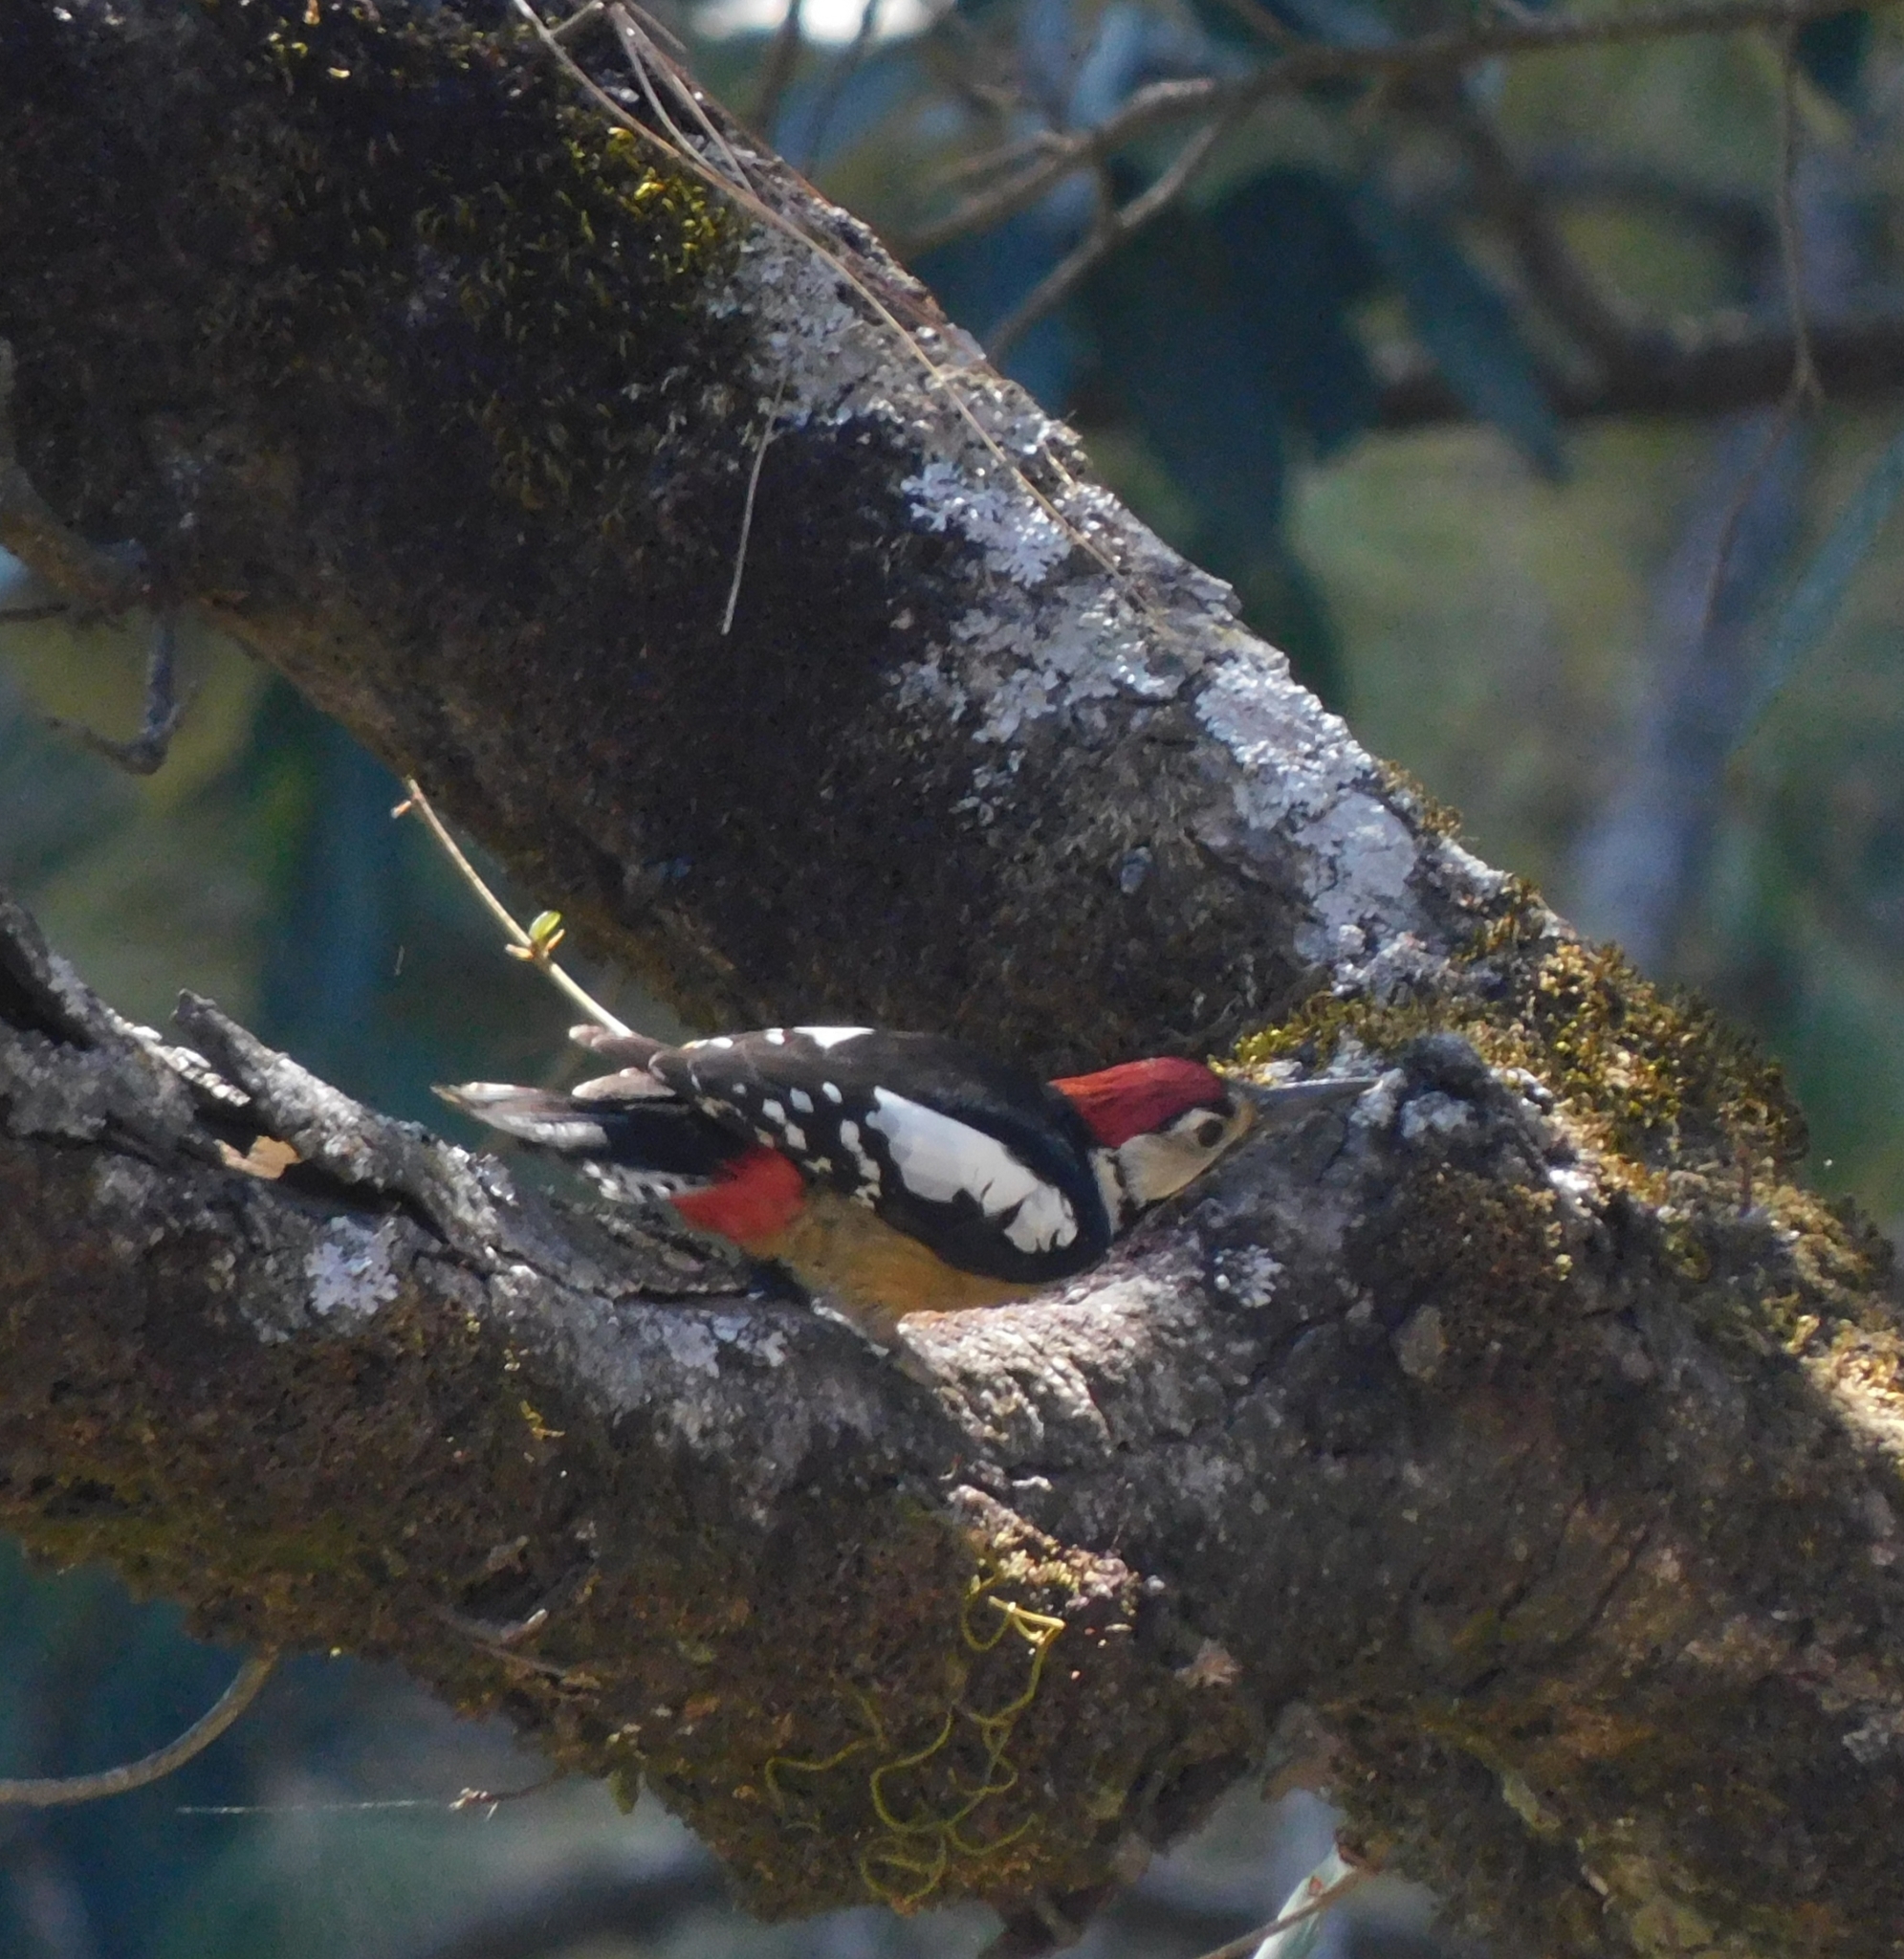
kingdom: Animalia
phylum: Chordata
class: Aves
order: Piciformes
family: Picidae
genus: Dendrocopos
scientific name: Dendrocopos himalayensis
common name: Himalayan woodpecker
